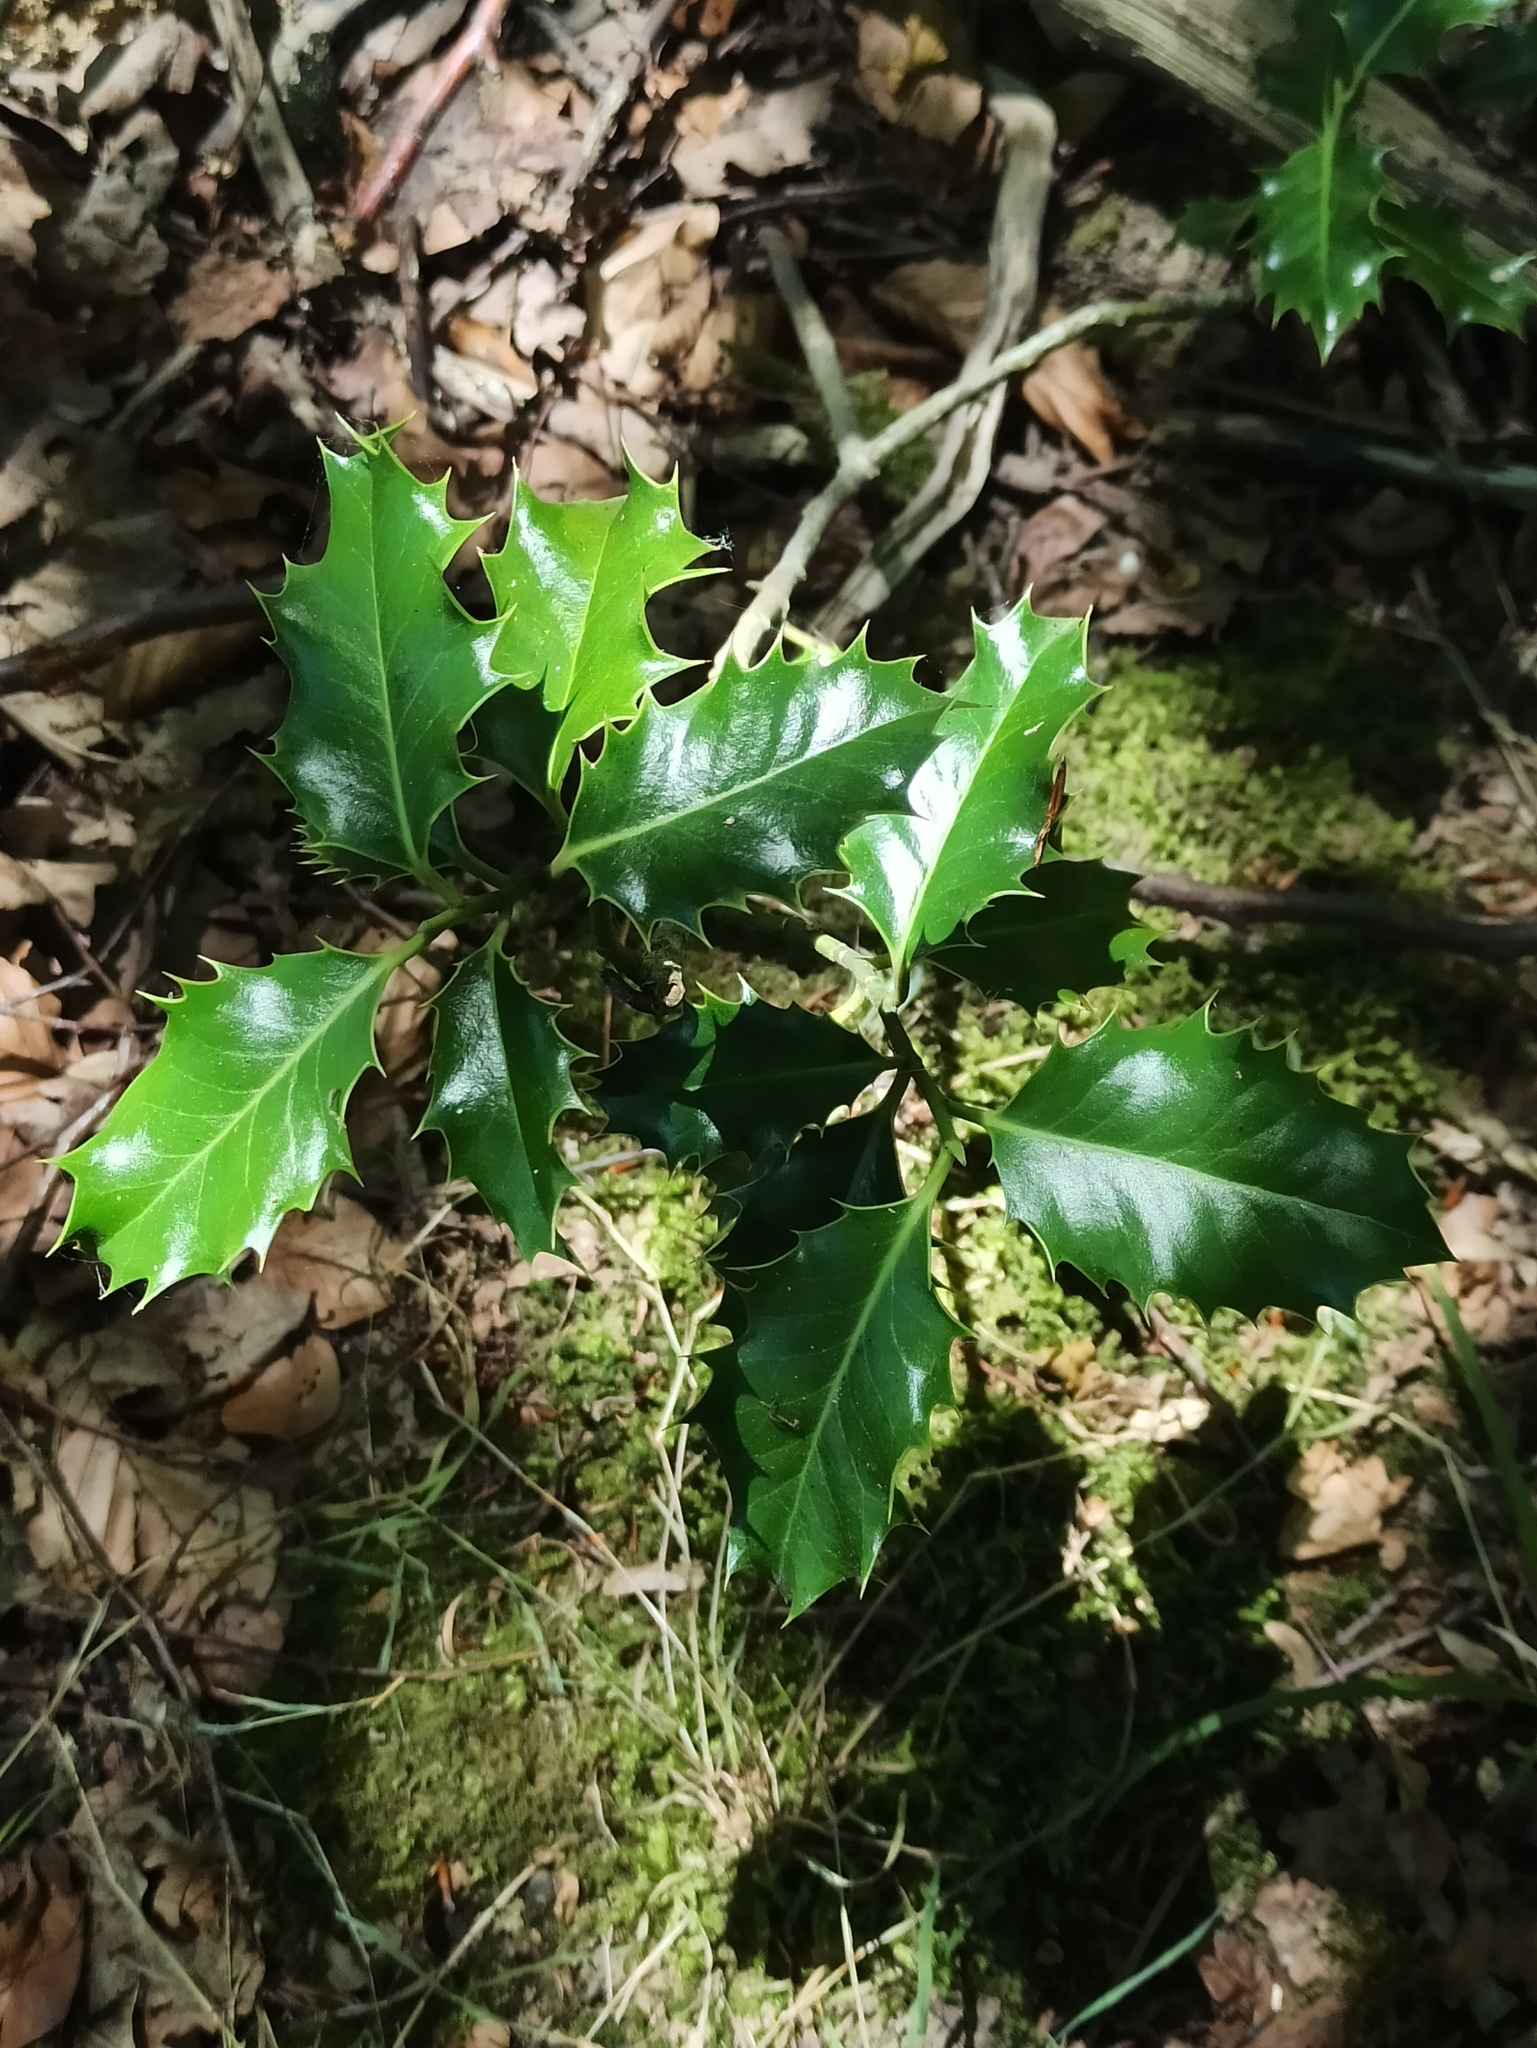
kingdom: Plantae
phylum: Tracheophyta
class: Magnoliopsida
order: Aquifoliales
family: Aquifoliaceae
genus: Ilex
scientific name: Ilex aquifolium
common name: English holly
